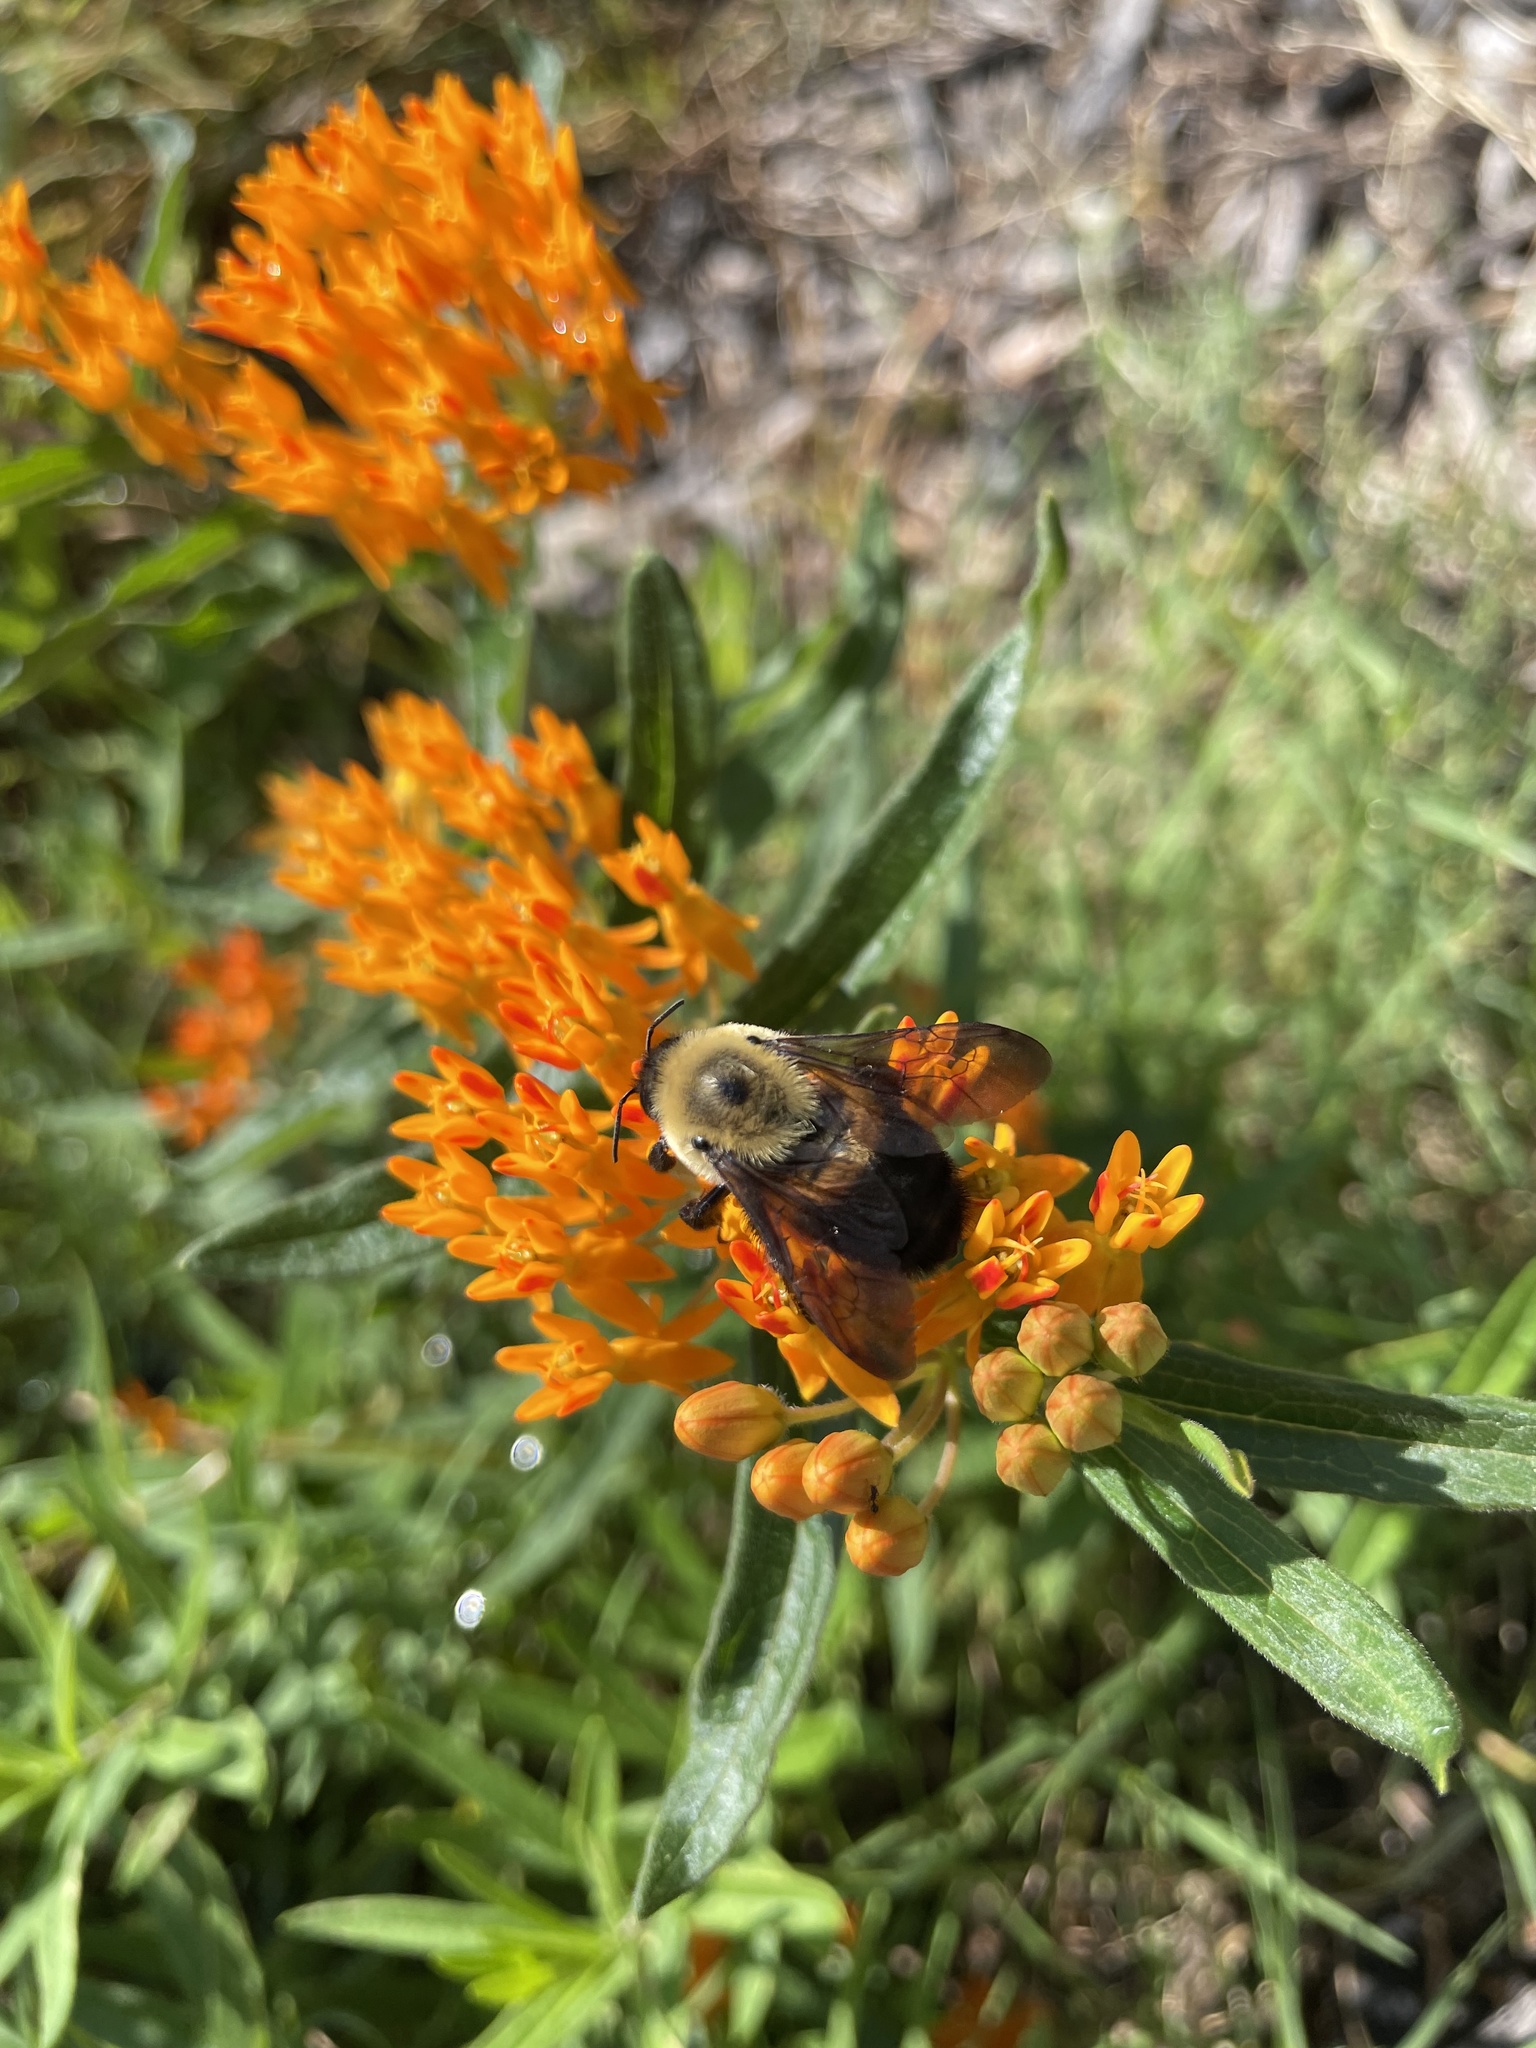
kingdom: Animalia
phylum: Arthropoda
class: Insecta
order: Hymenoptera
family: Apidae
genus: Bombus
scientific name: Bombus griseocollis
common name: Brown-belted bumble bee
